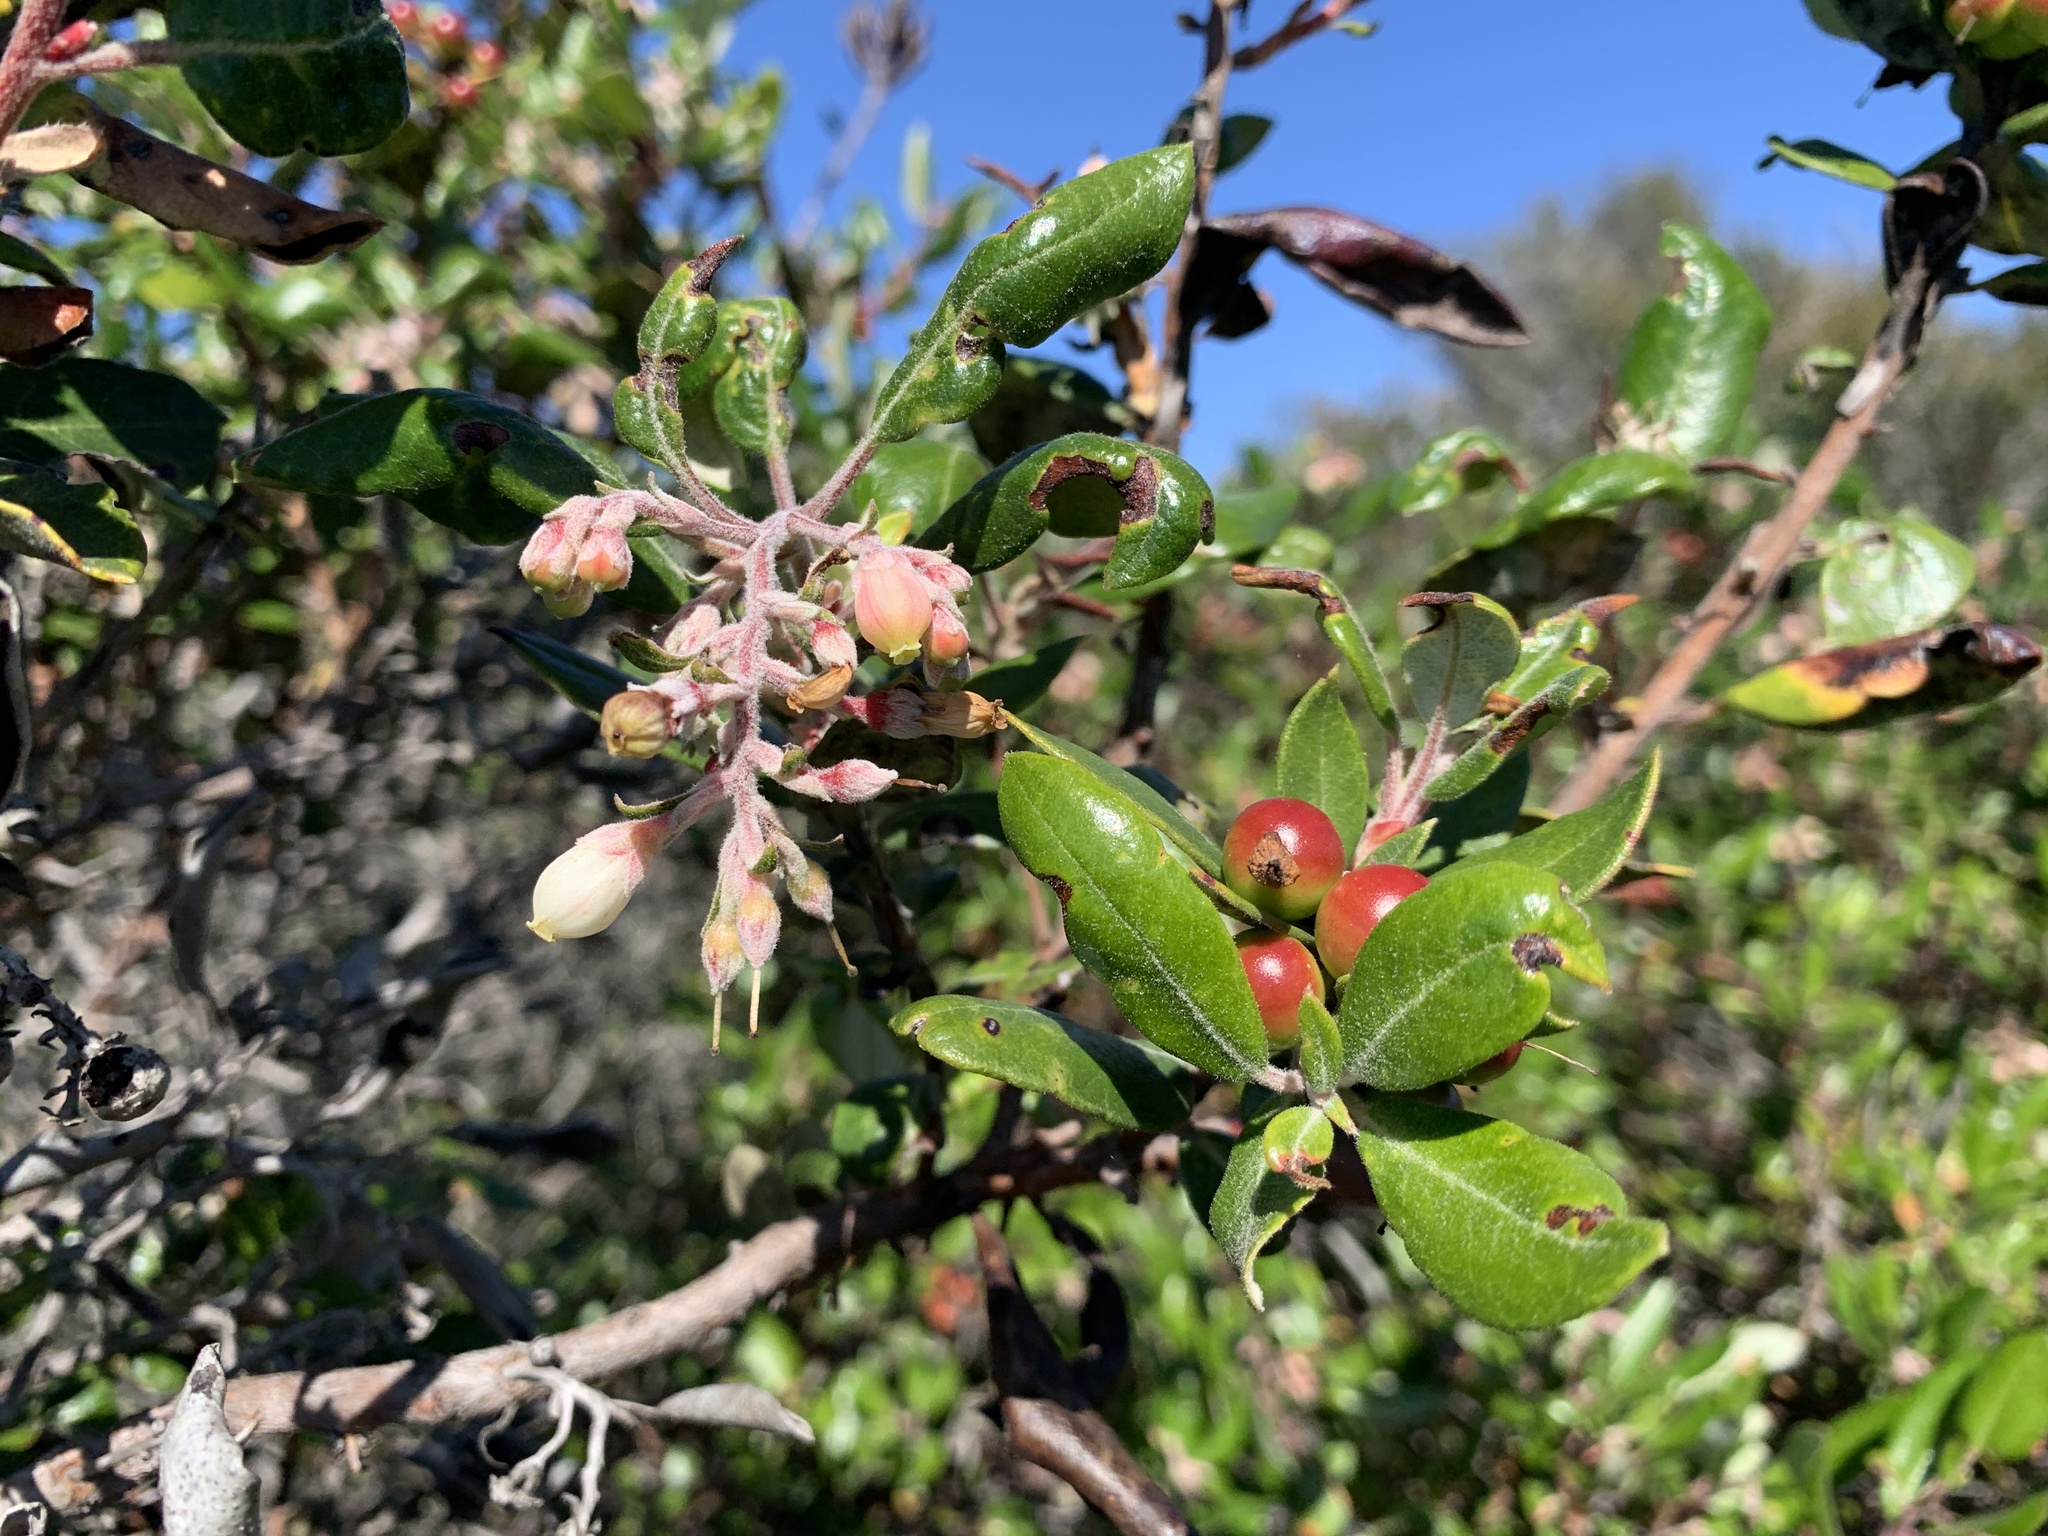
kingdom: Plantae
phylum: Tracheophyta
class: Magnoliopsida
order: Ericales
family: Ericaceae
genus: Arctostaphylos
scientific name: Arctostaphylos bicolor
